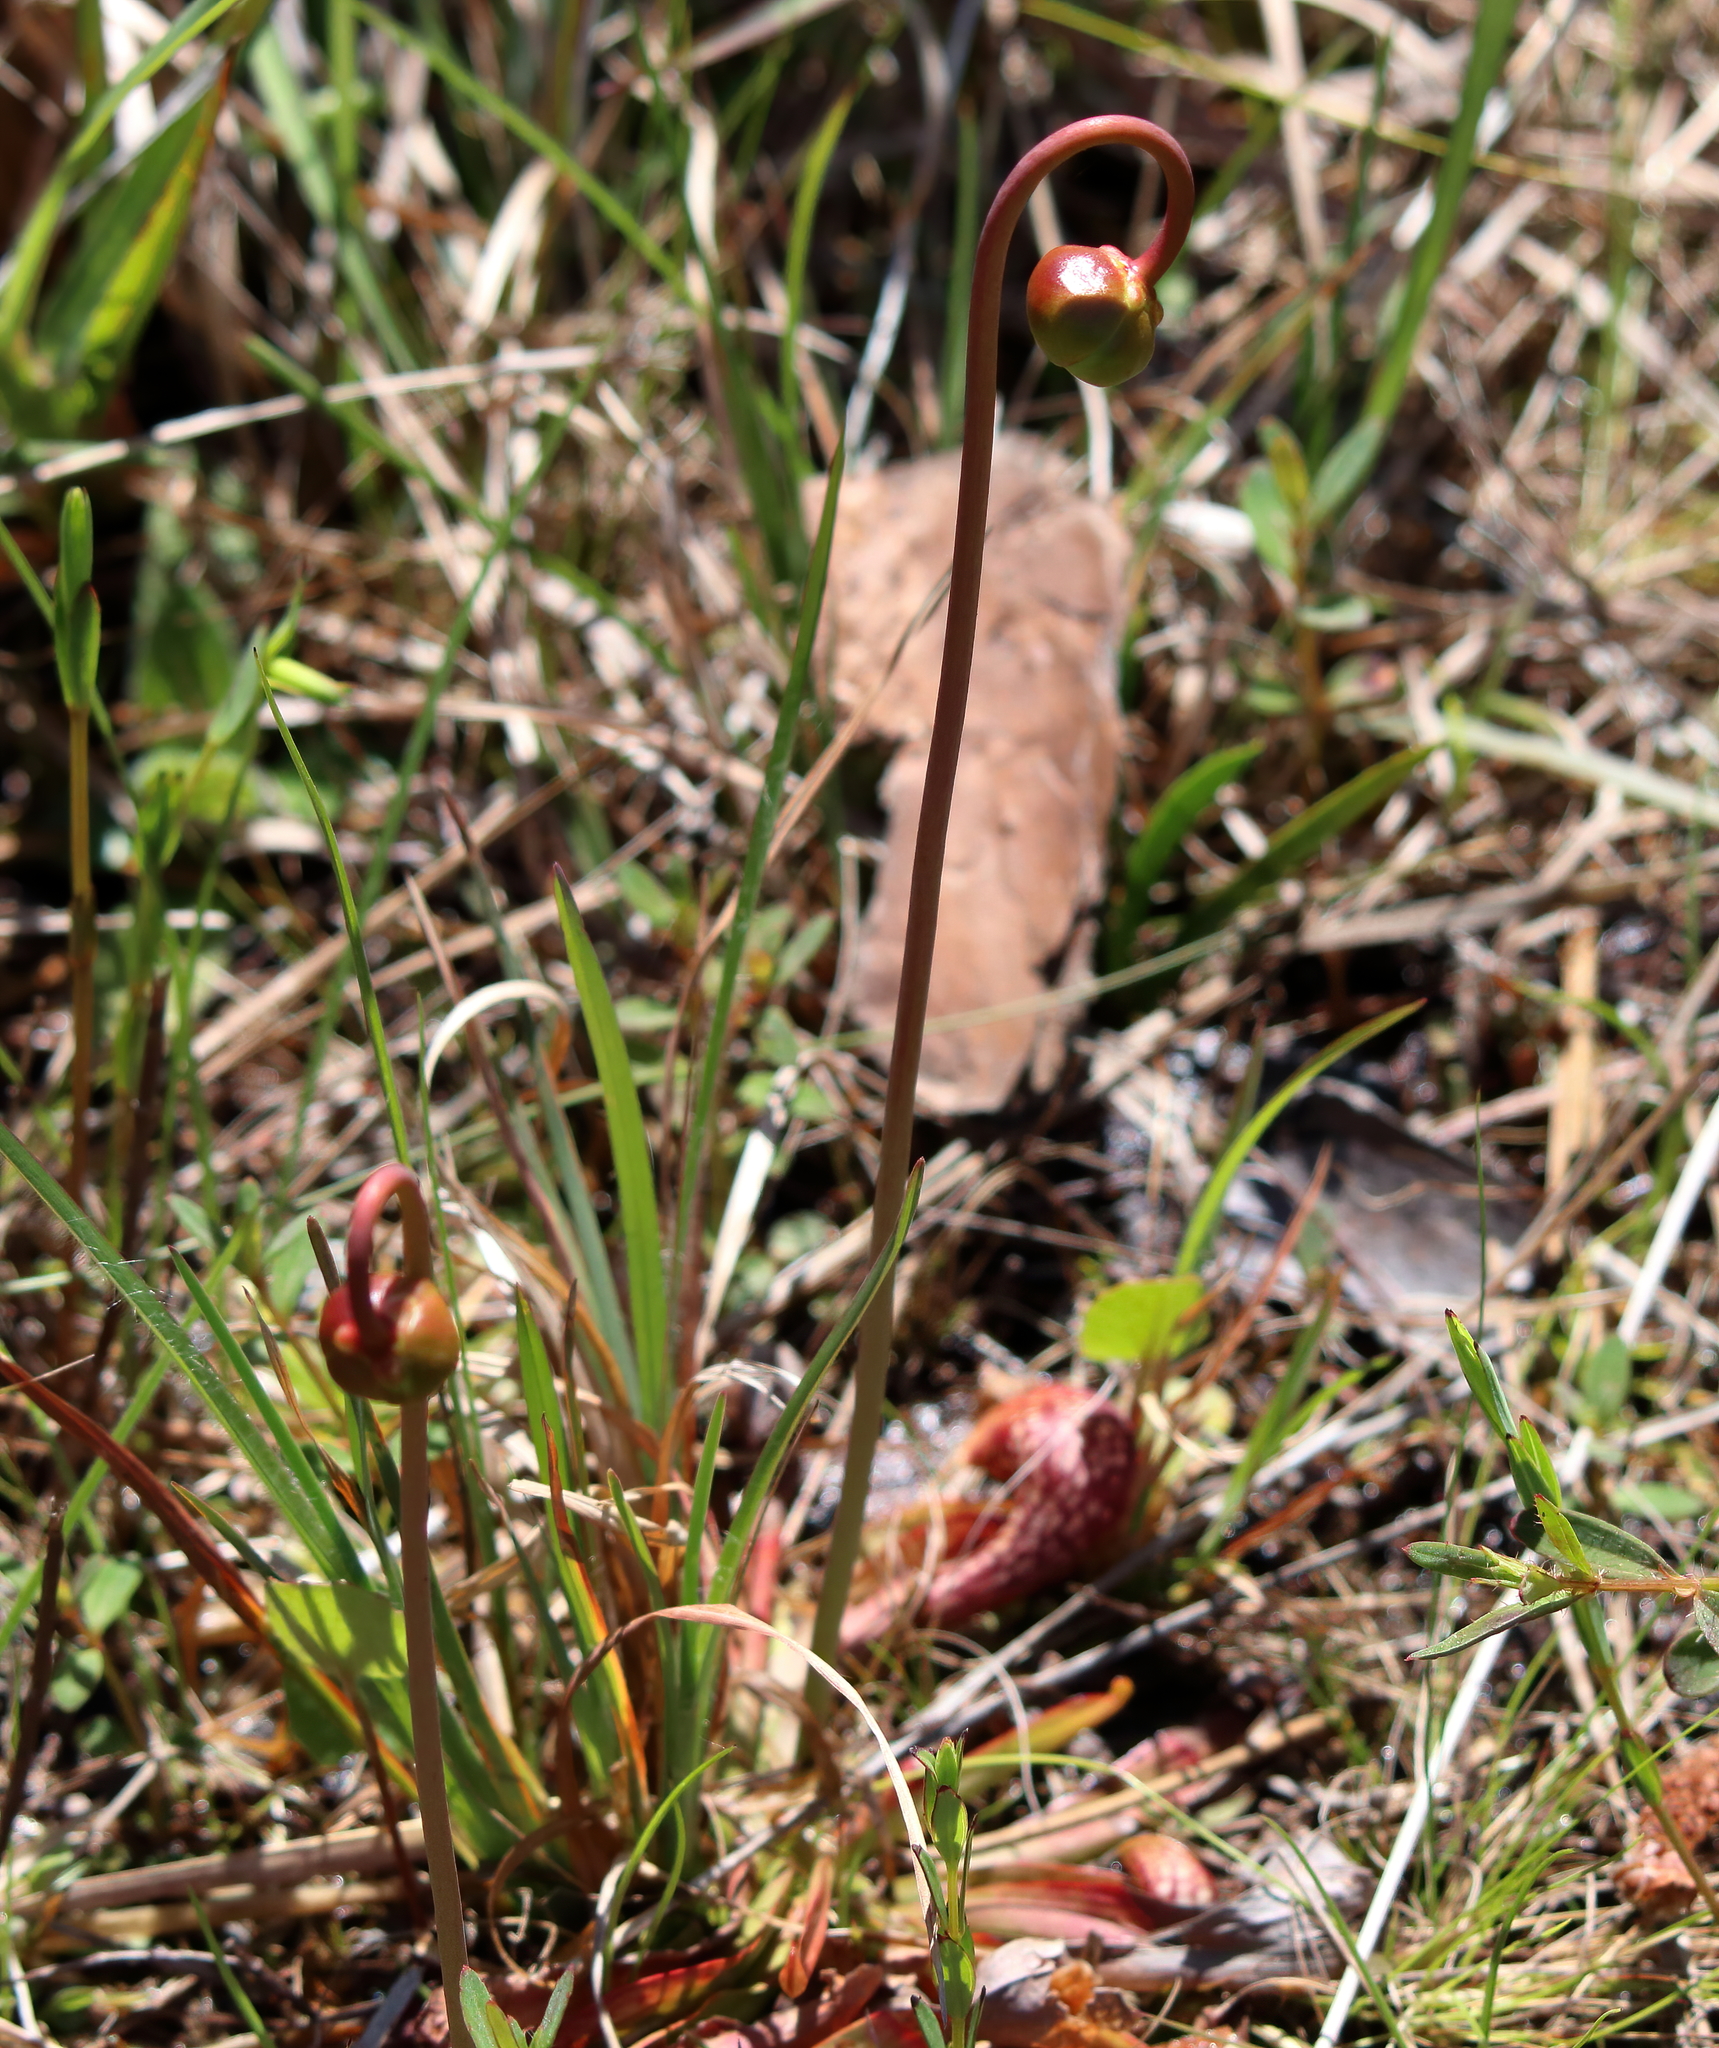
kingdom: Plantae
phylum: Tracheophyta
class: Magnoliopsida
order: Ericales
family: Sarraceniaceae
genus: Sarracenia
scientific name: Sarracenia psittacina
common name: Parrot pitcherplant
